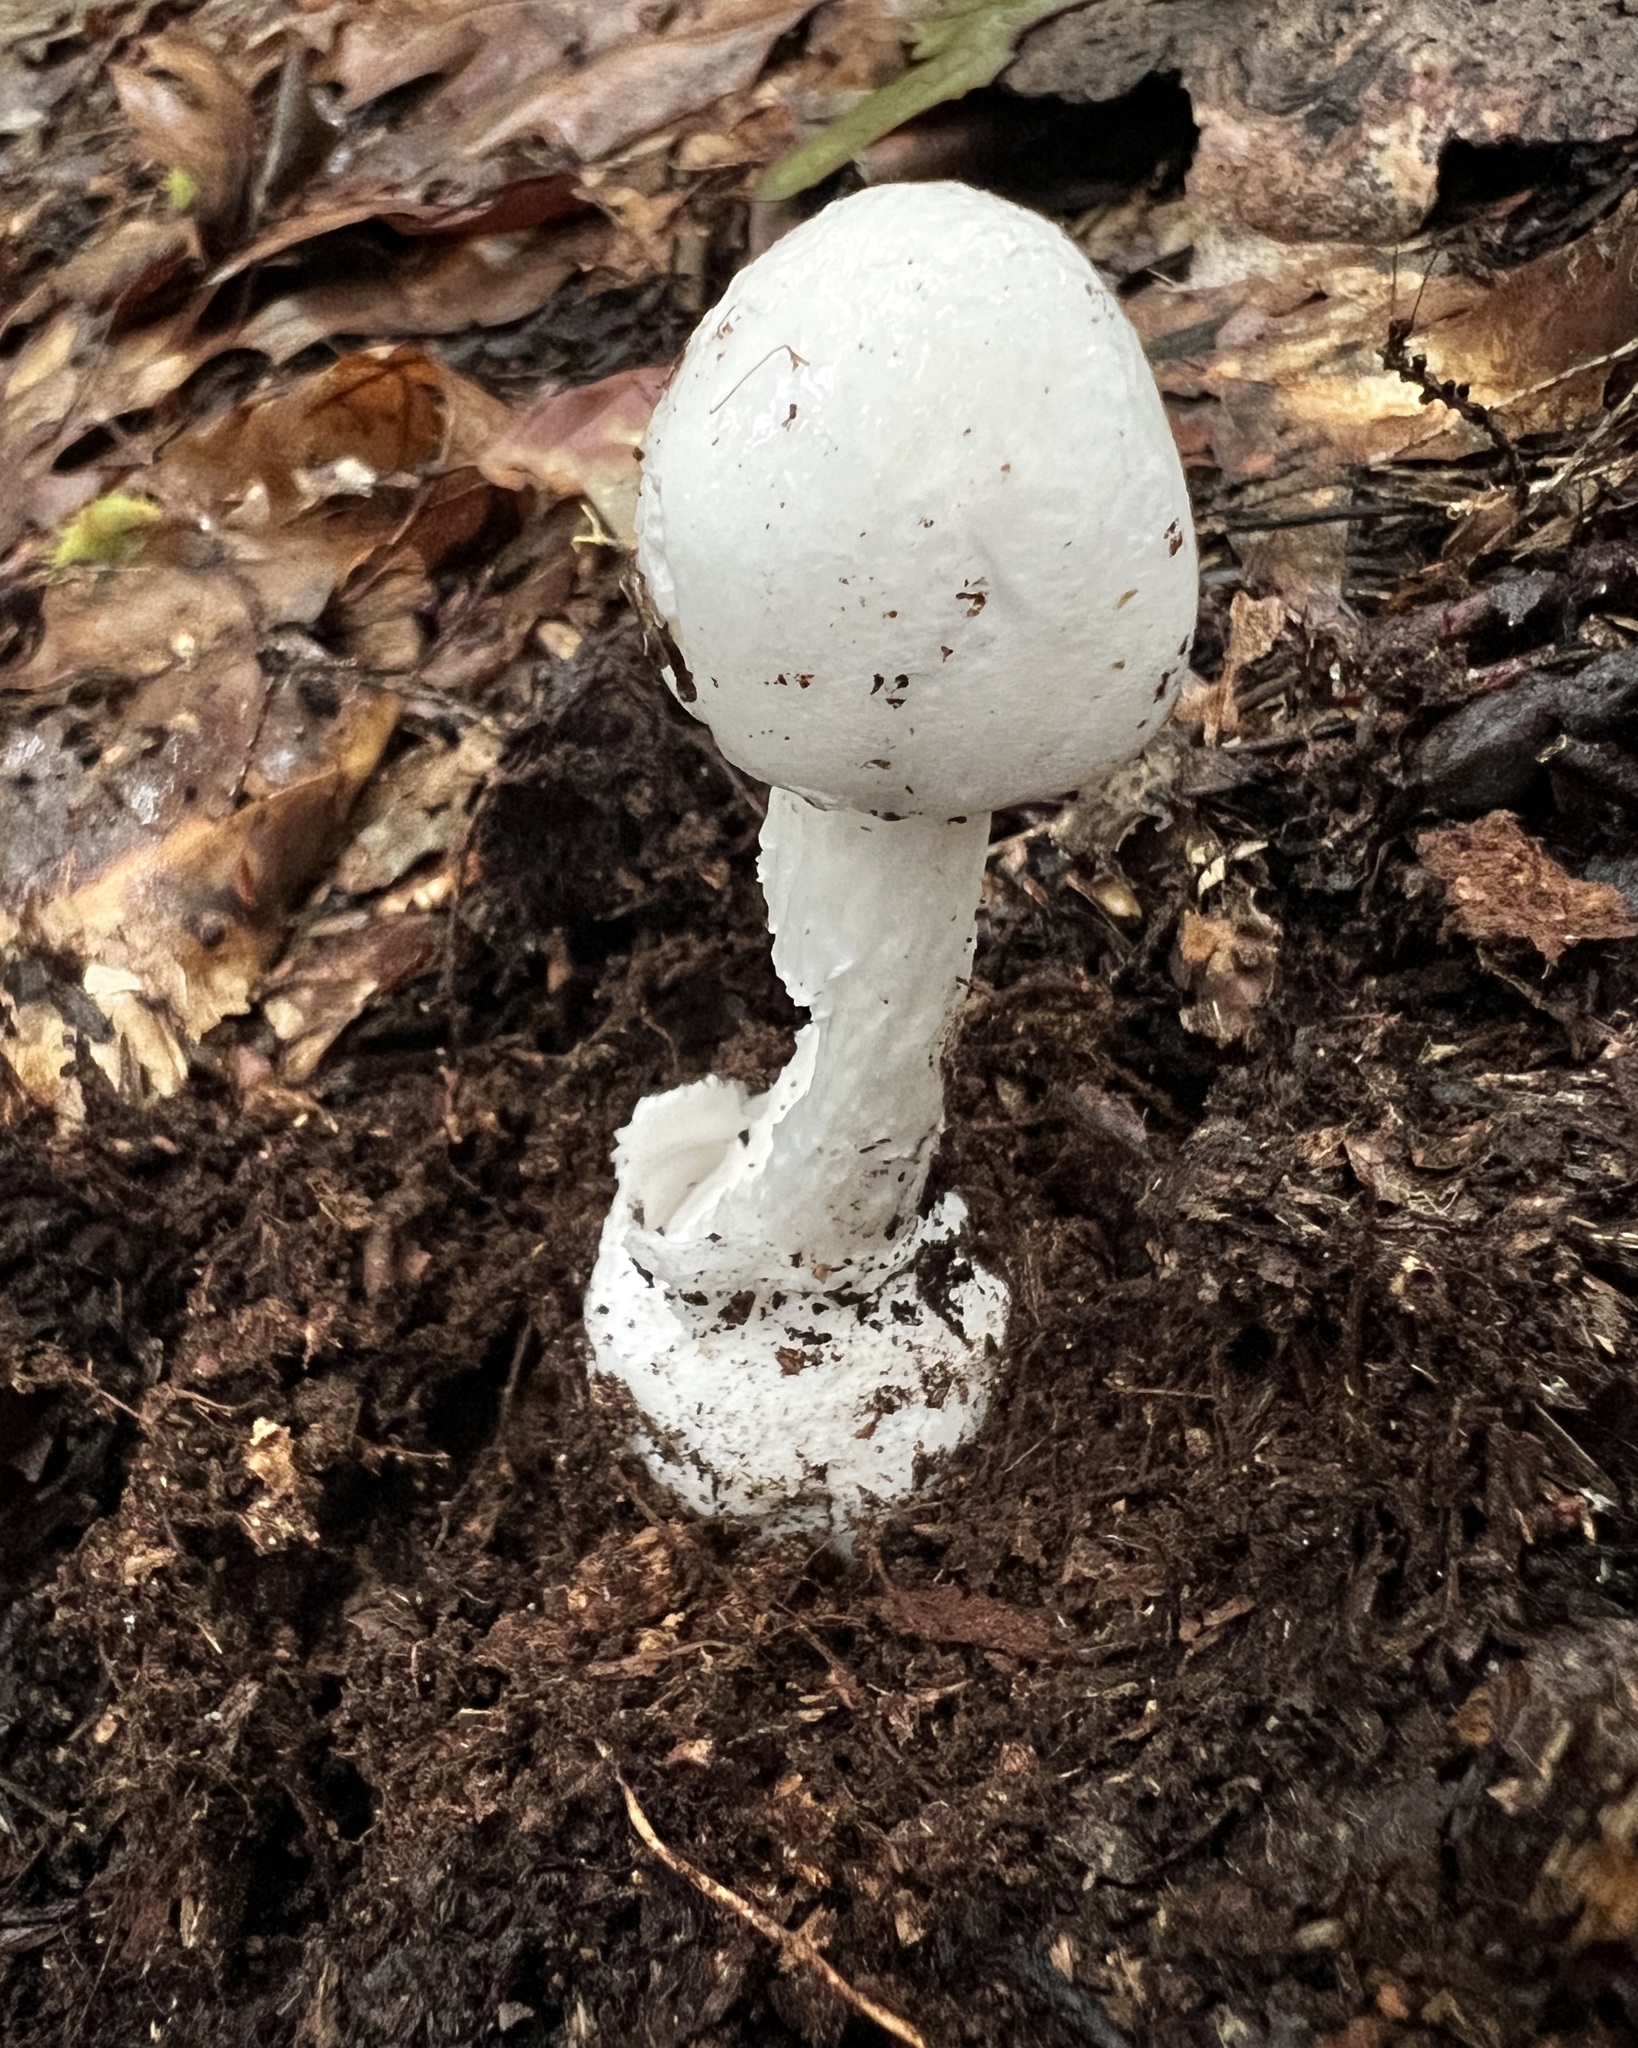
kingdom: Fungi
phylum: Basidiomycota
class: Agaricomycetes
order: Agaricales
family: Amanitaceae
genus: Amanita
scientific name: Amanita bisporigera
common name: Eastern north american destroying angel
